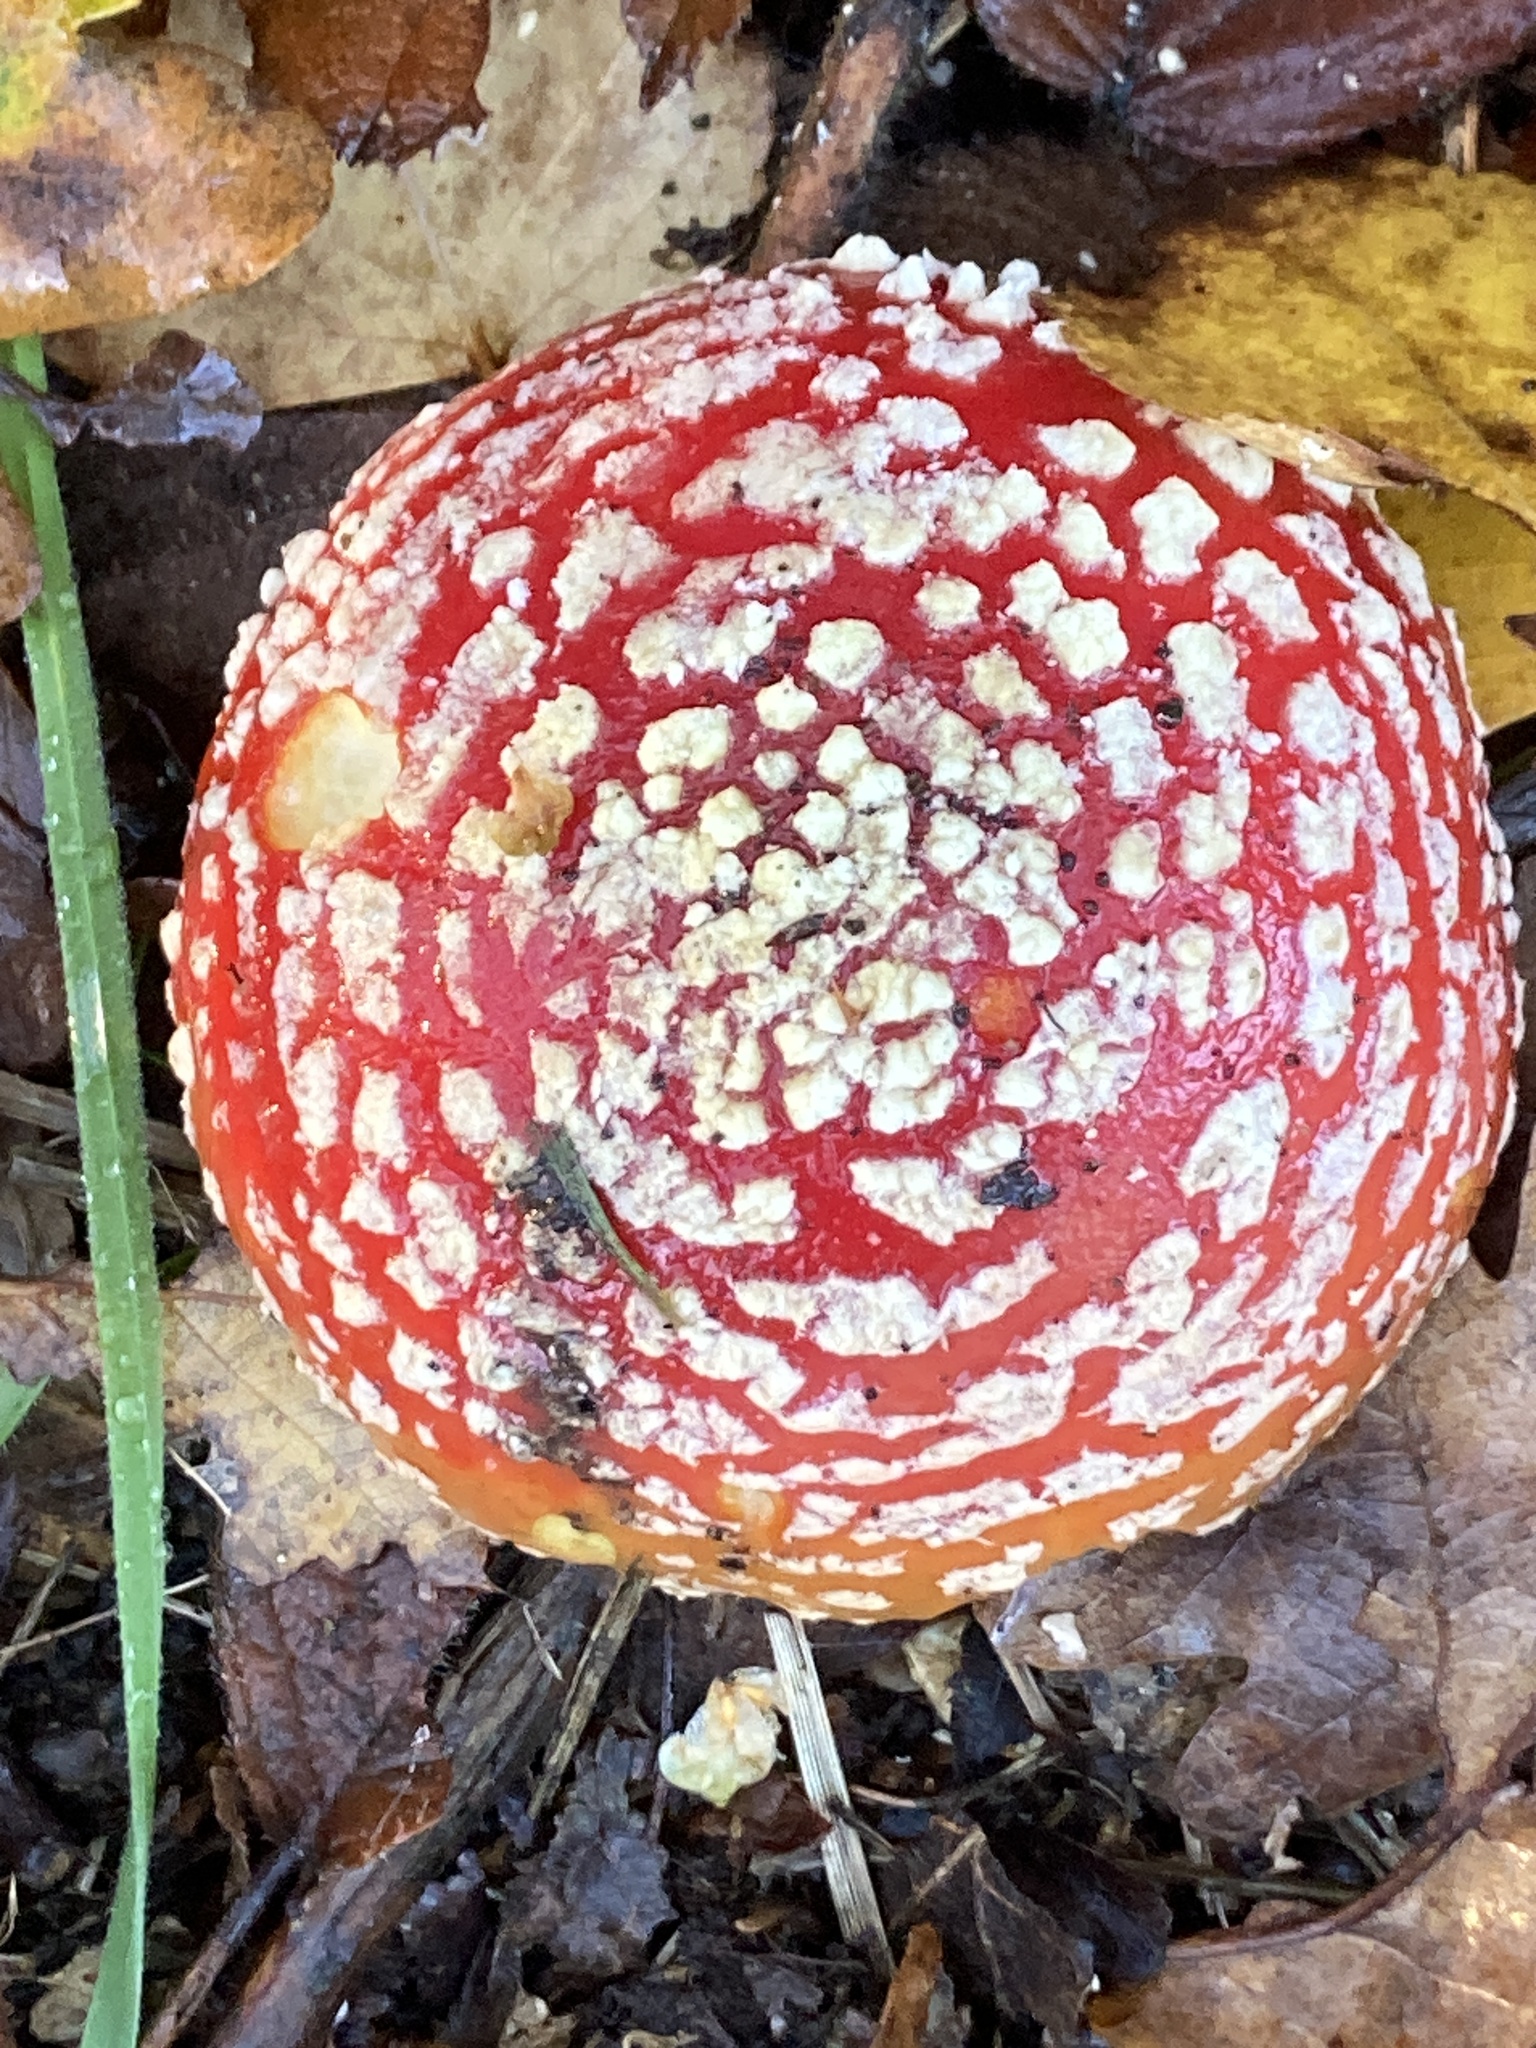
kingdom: Fungi
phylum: Basidiomycota
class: Agaricomycetes
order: Agaricales
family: Amanitaceae
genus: Amanita
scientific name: Amanita muscaria
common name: Fly agaric
